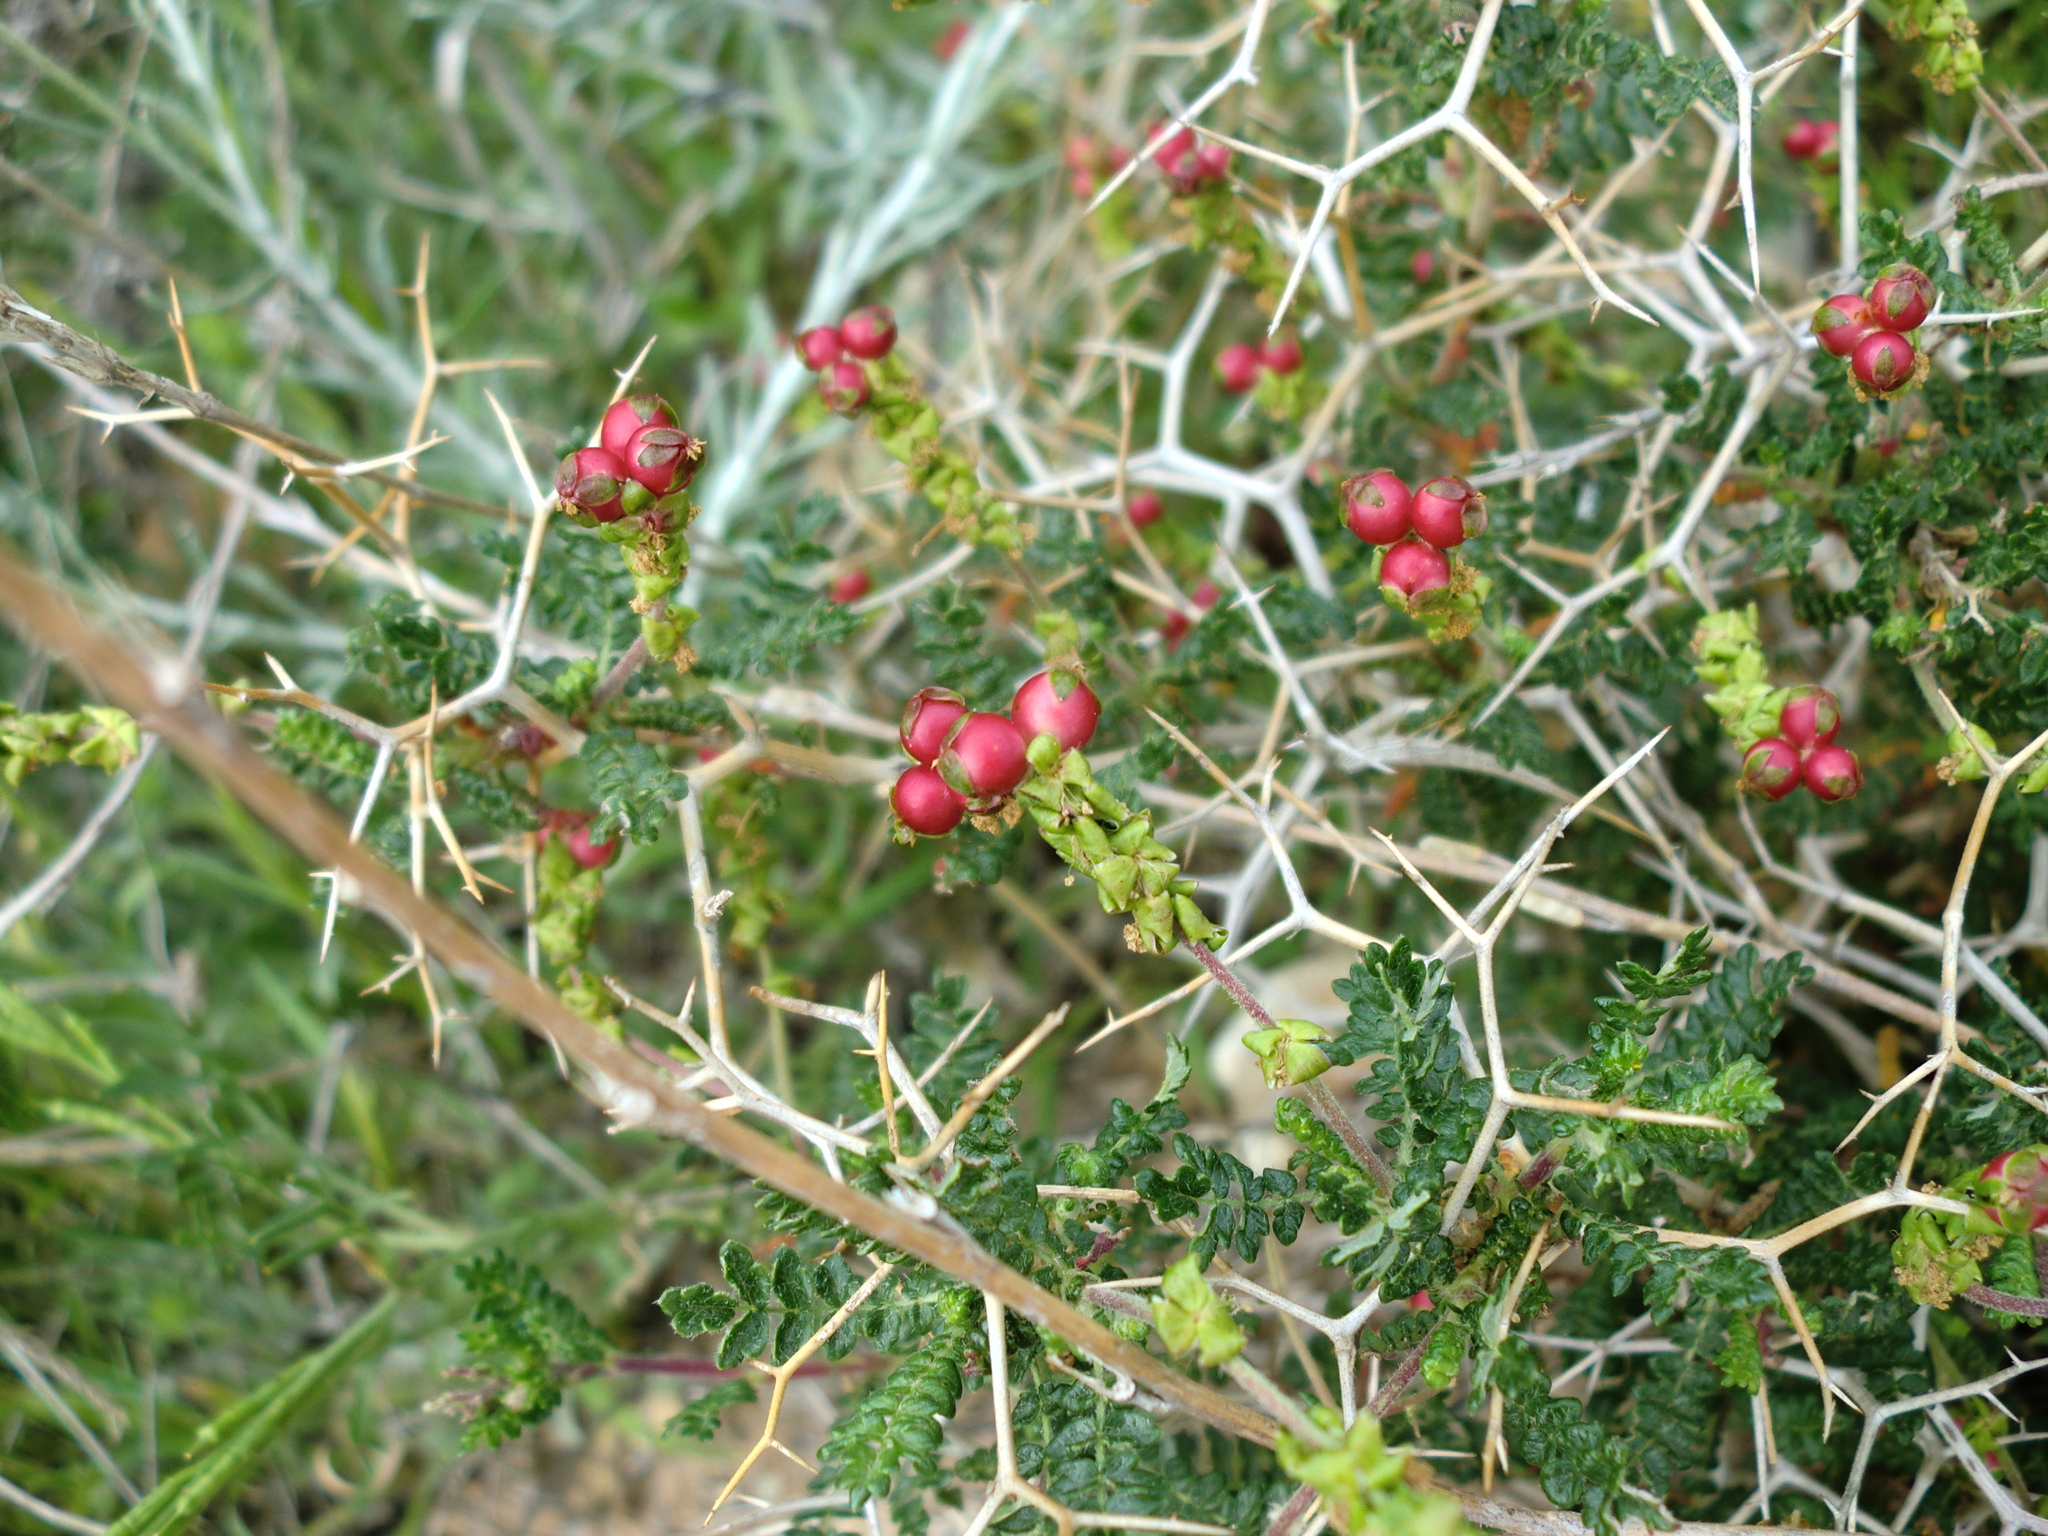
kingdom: Plantae
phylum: Tracheophyta
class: Magnoliopsida
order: Rosales
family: Rosaceae
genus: Sarcopoterium
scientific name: Sarcopoterium spinosum
